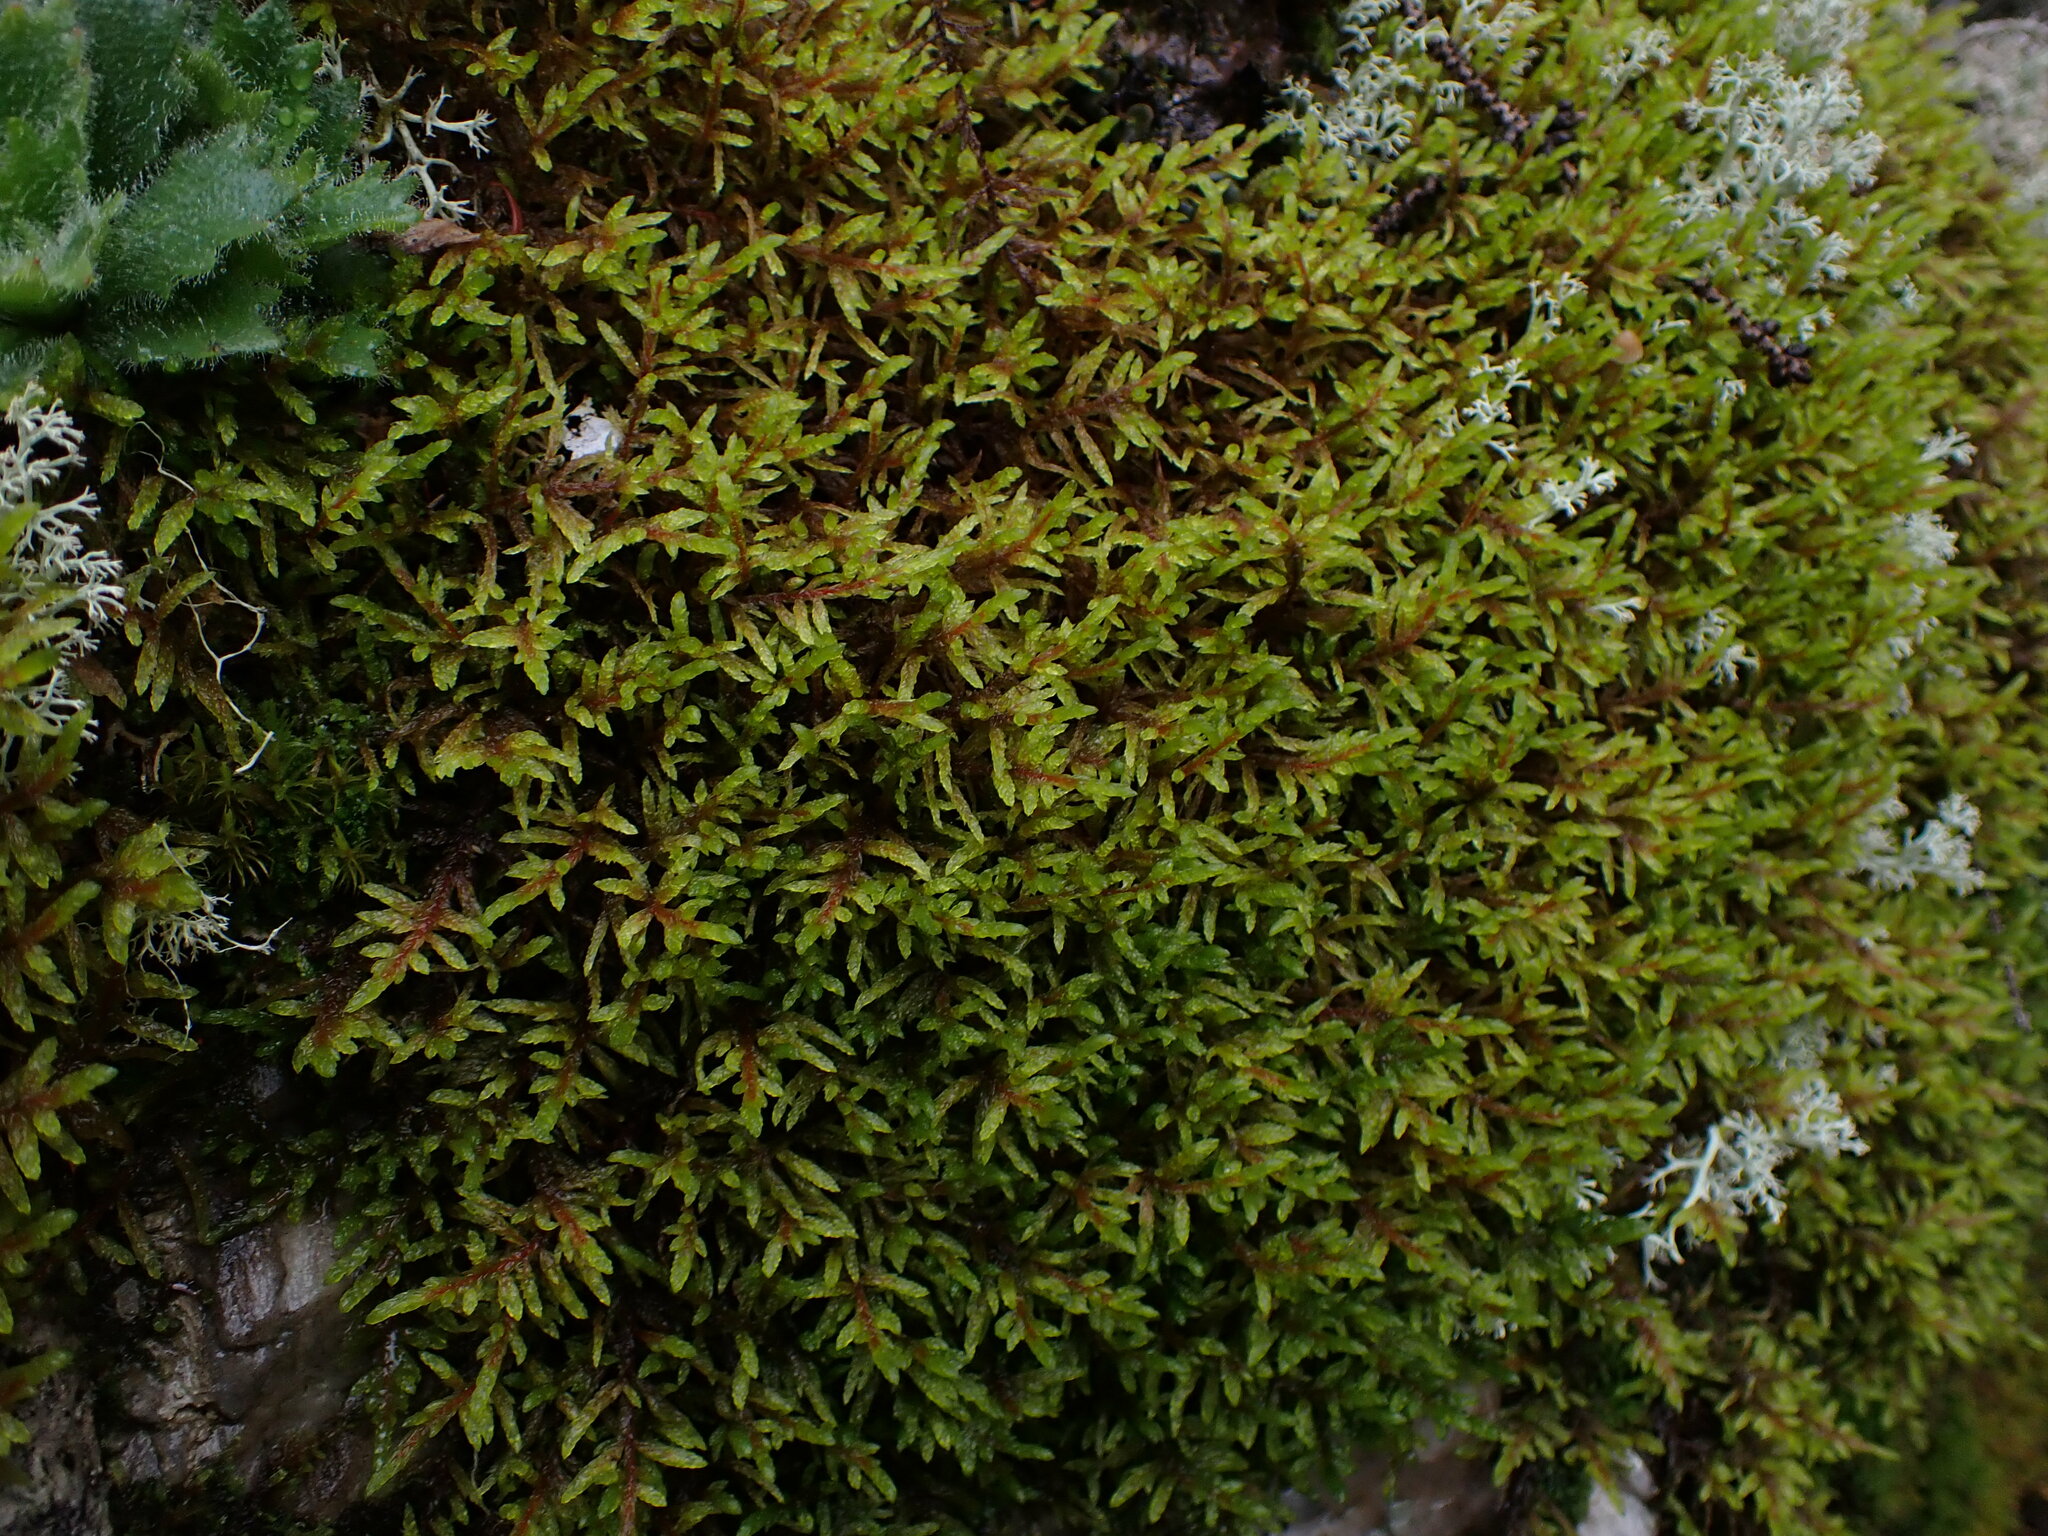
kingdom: Plantae
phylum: Bryophyta
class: Bryopsida
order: Hypnales
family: Hylocomiaceae
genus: Pleurozium
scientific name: Pleurozium schreberi
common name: Red-stemmed feather moss
